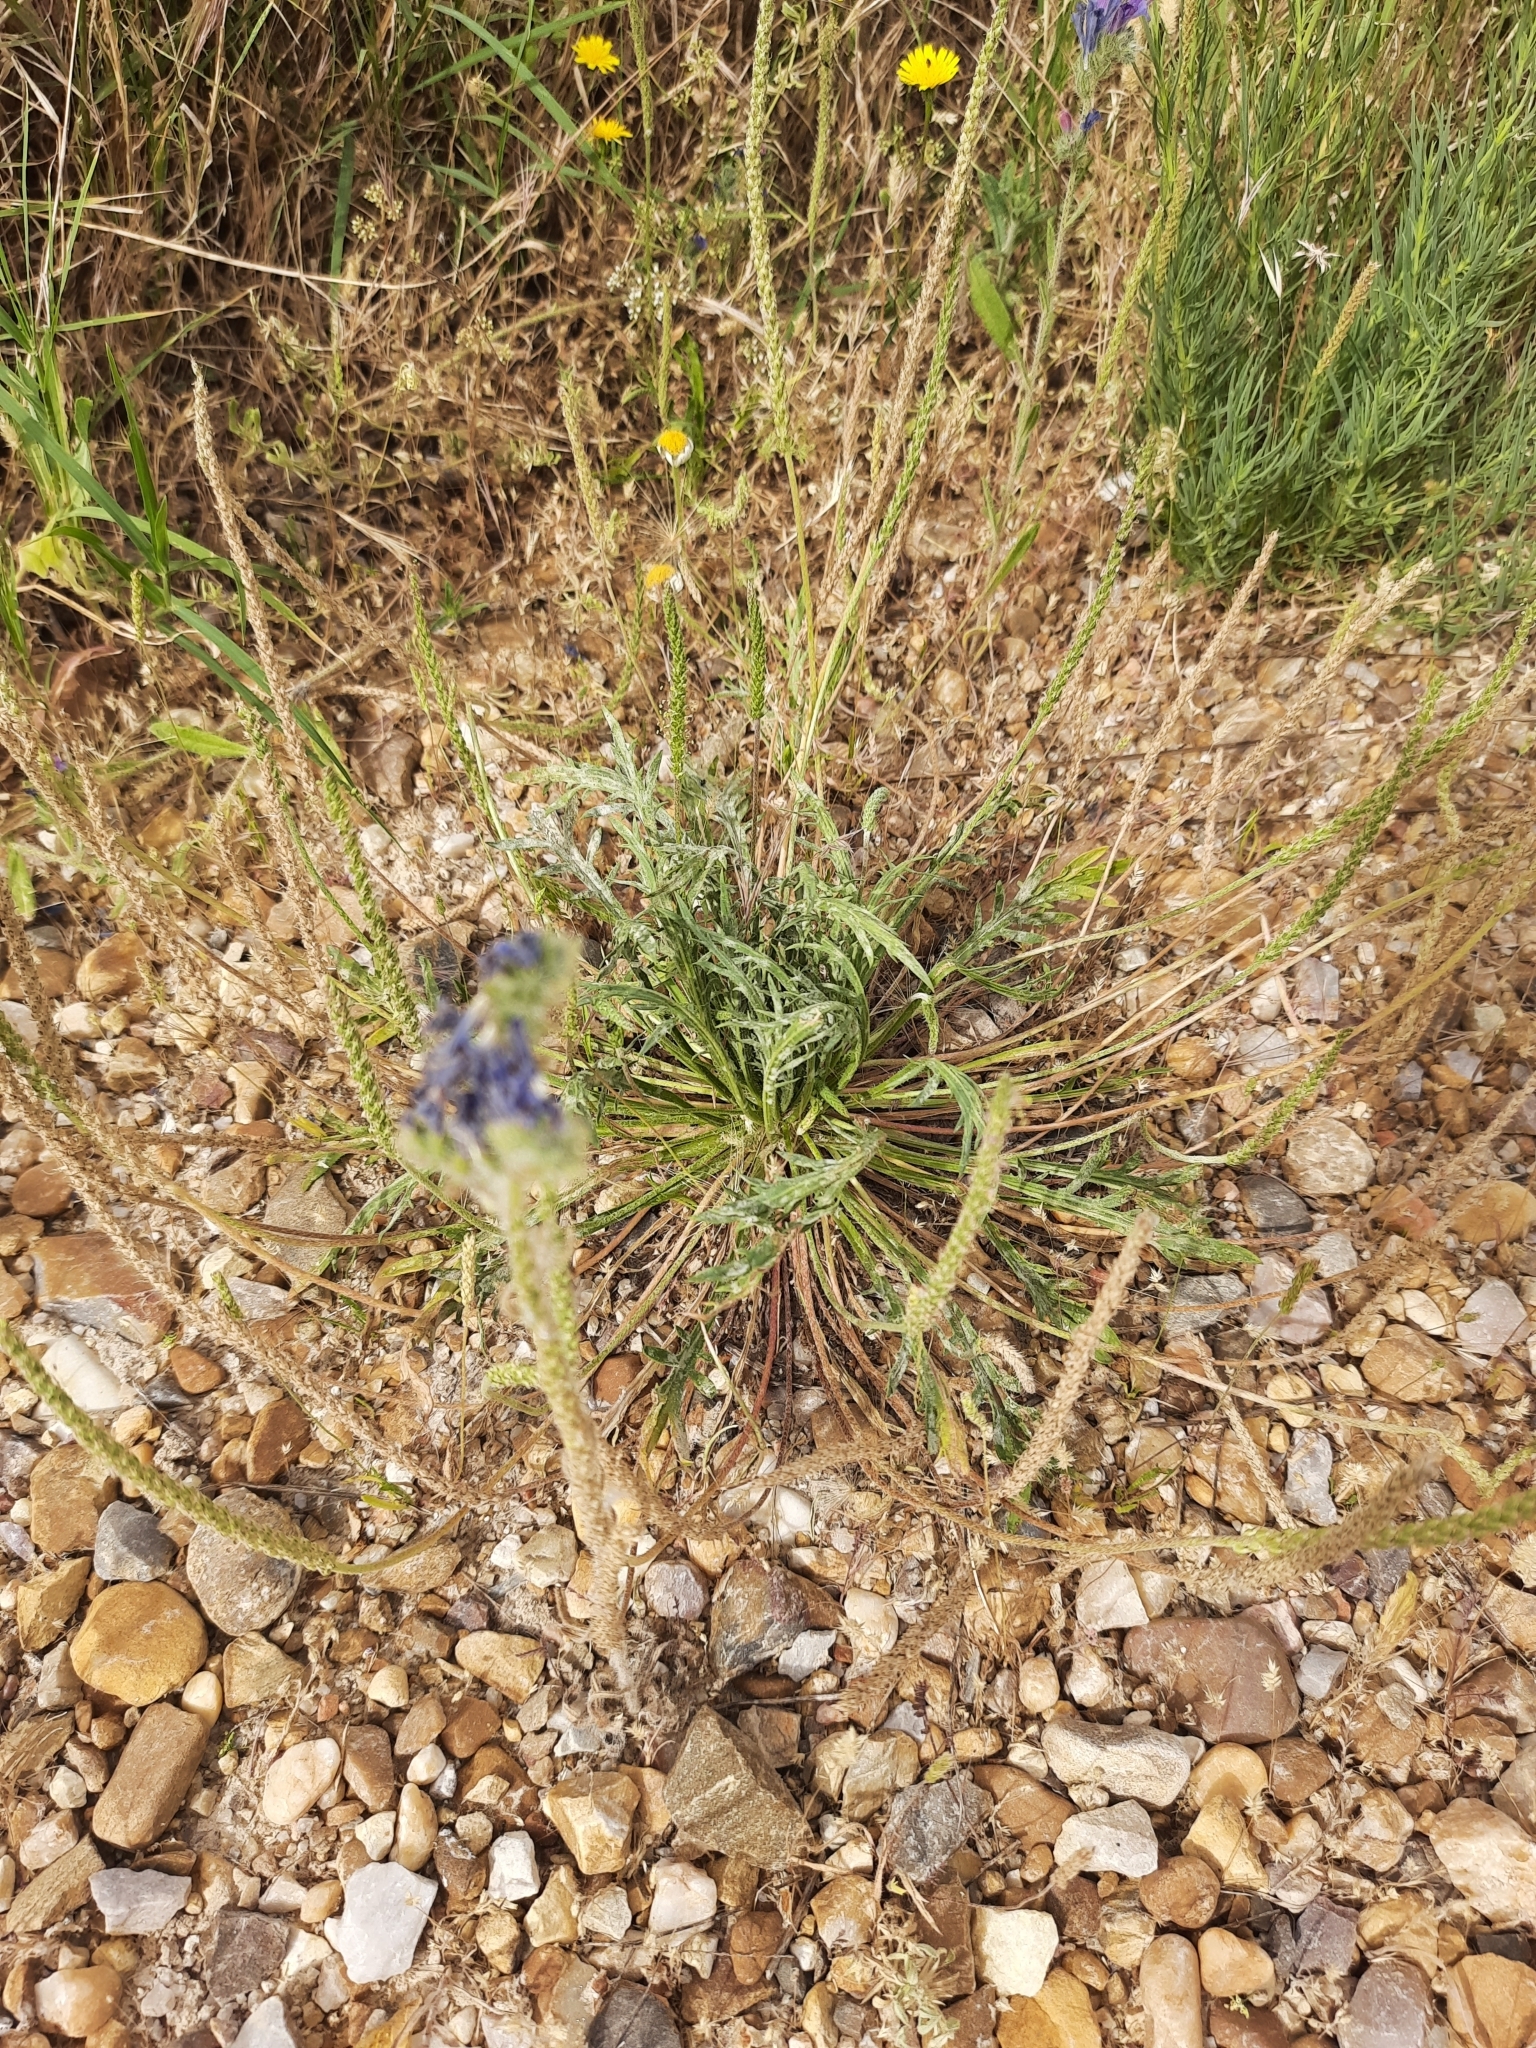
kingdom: Plantae
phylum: Tracheophyta
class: Magnoliopsida
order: Lamiales
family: Plantaginaceae
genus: Plantago
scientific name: Plantago coronopus
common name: Buck's-horn plantain
